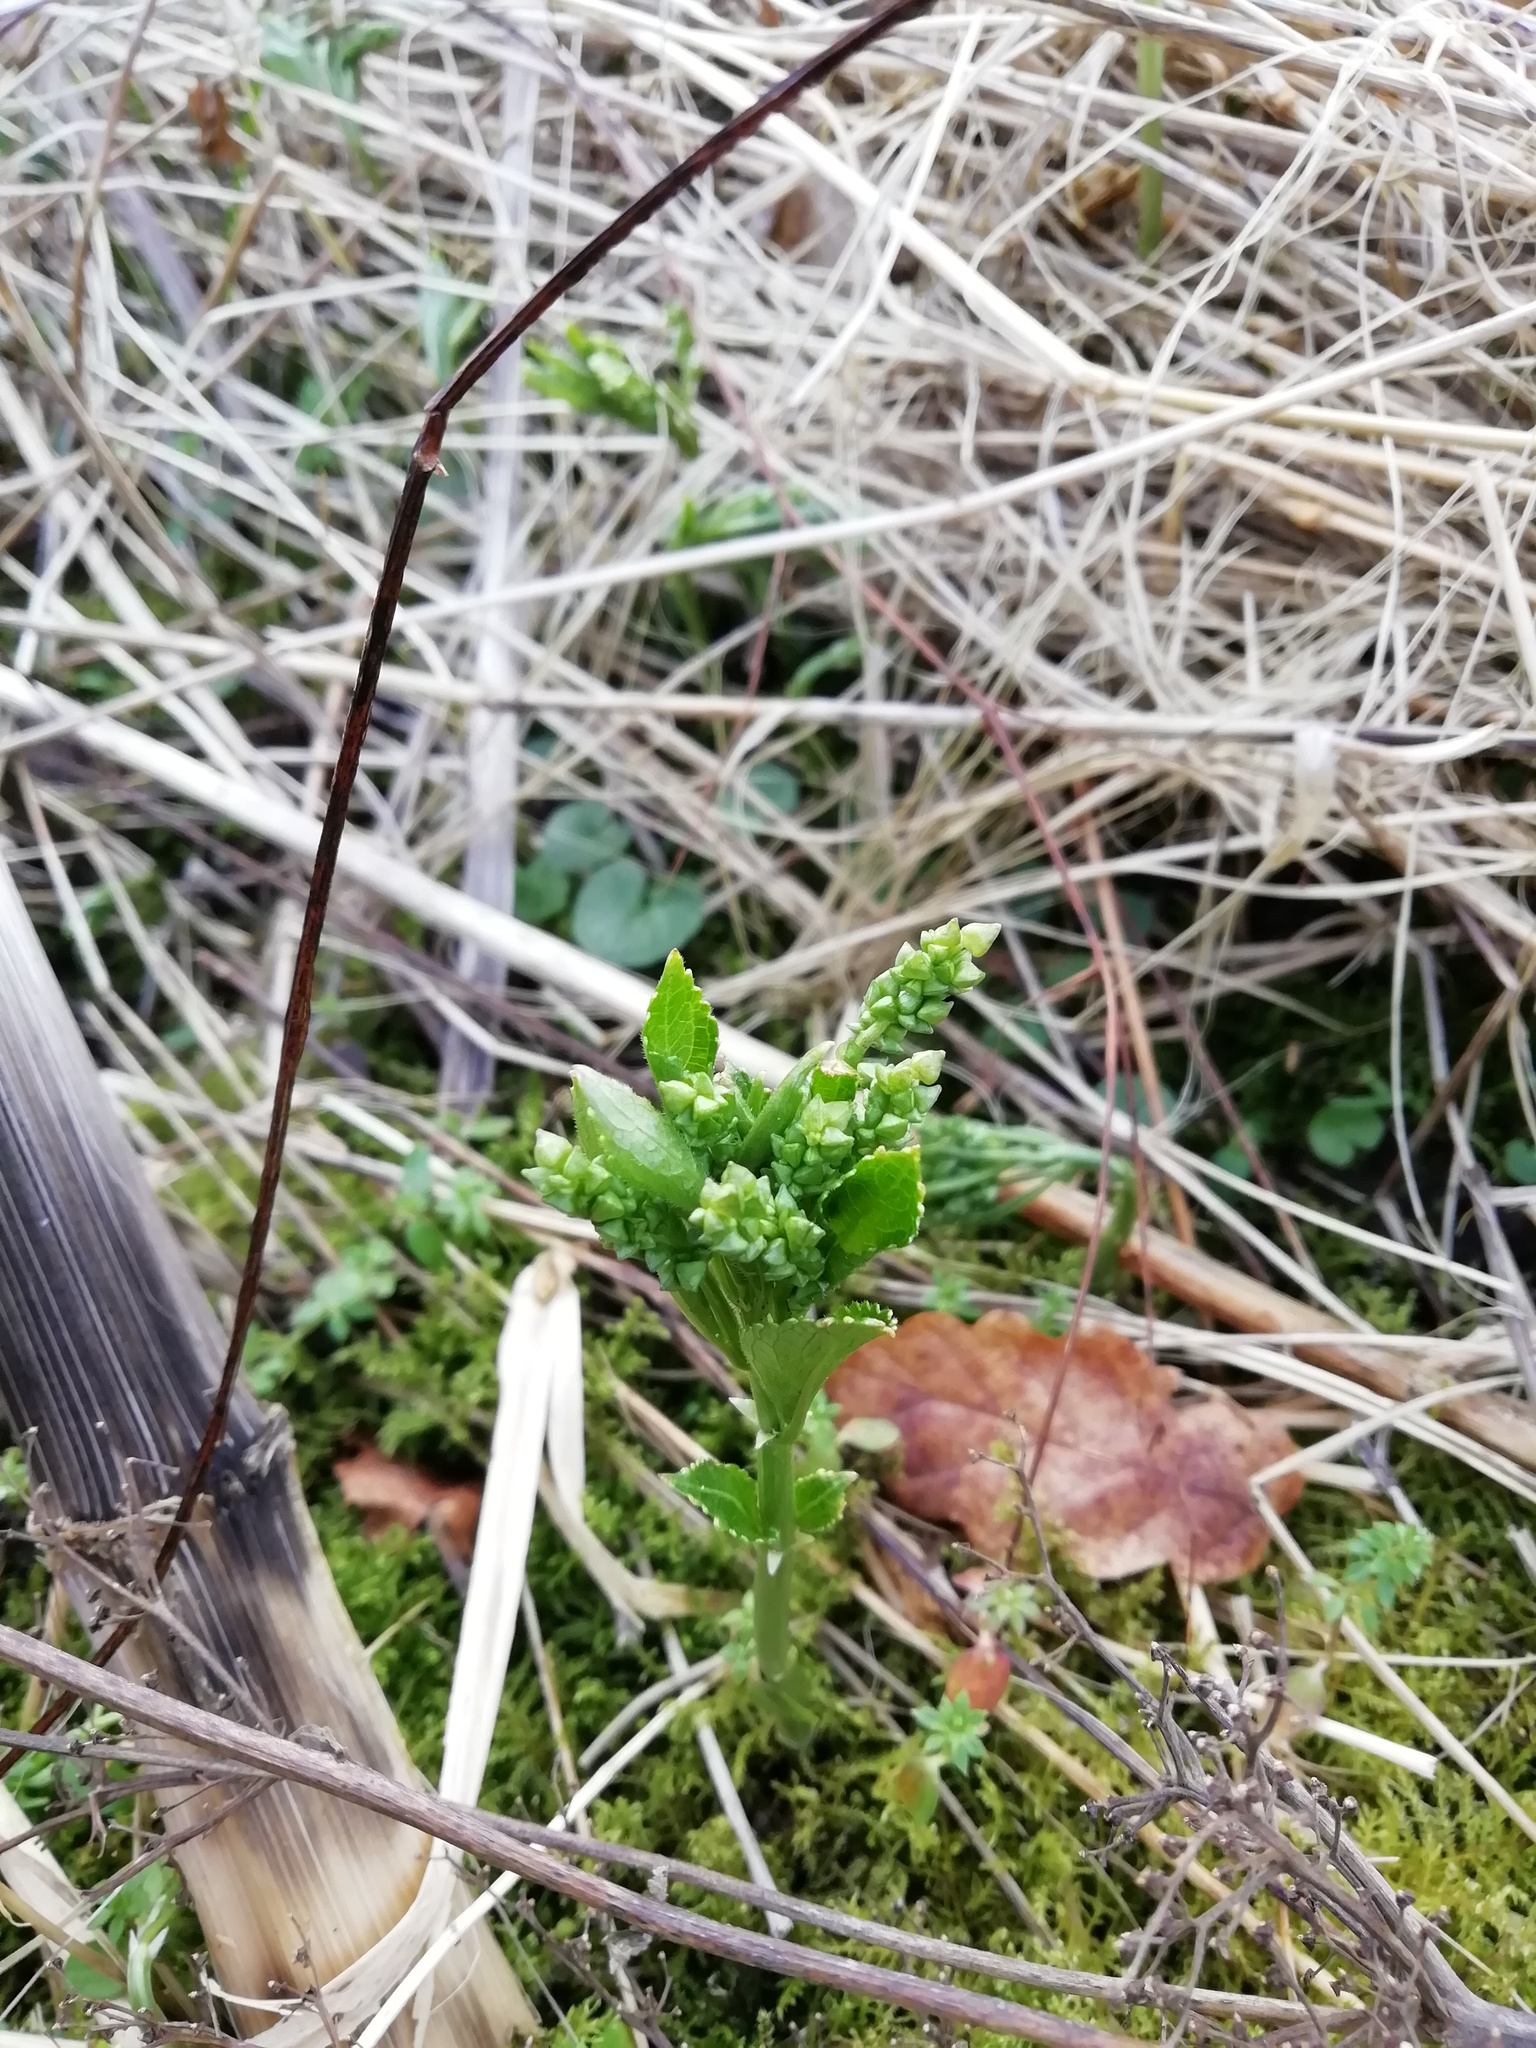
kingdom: Plantae
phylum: Tracheophyta
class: Magnoliopsida
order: Malpighiales
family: Euphorbiaceae
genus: Mercurialis
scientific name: Mercurialis perennis
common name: Dog mercury
